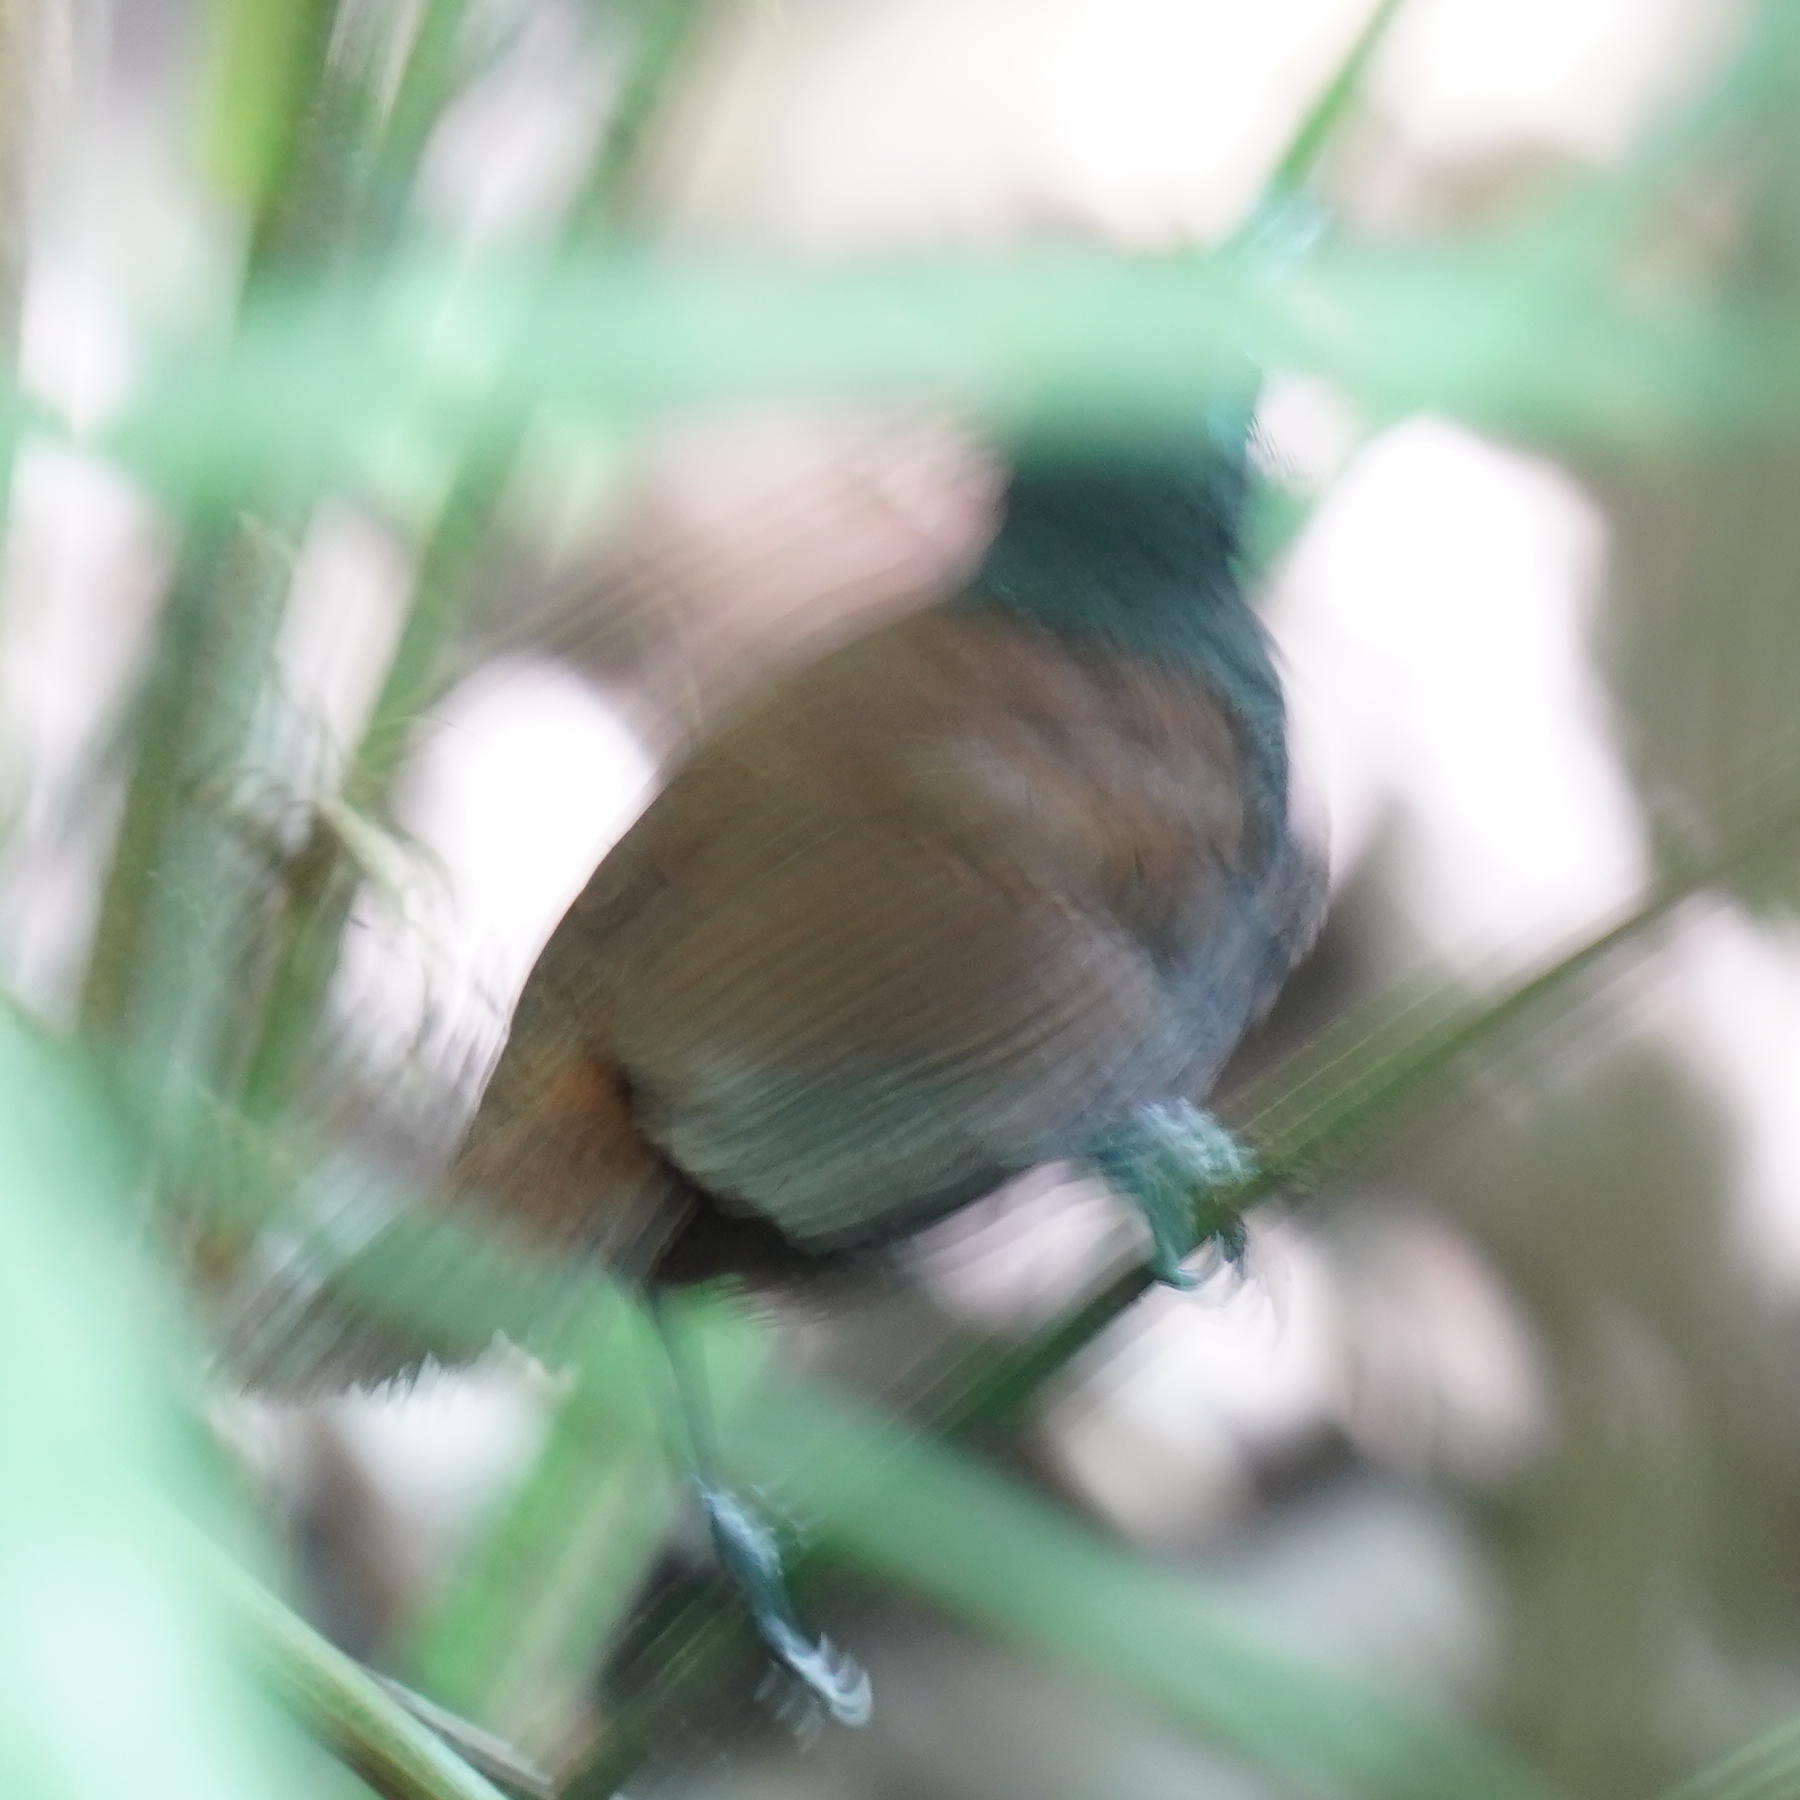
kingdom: Animalia
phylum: Chordata
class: Aves
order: Passeriformes
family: Thamnophilidae
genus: Myrmeciza
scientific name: Myrmeciza exsul
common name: Chestnut-backed antbird
